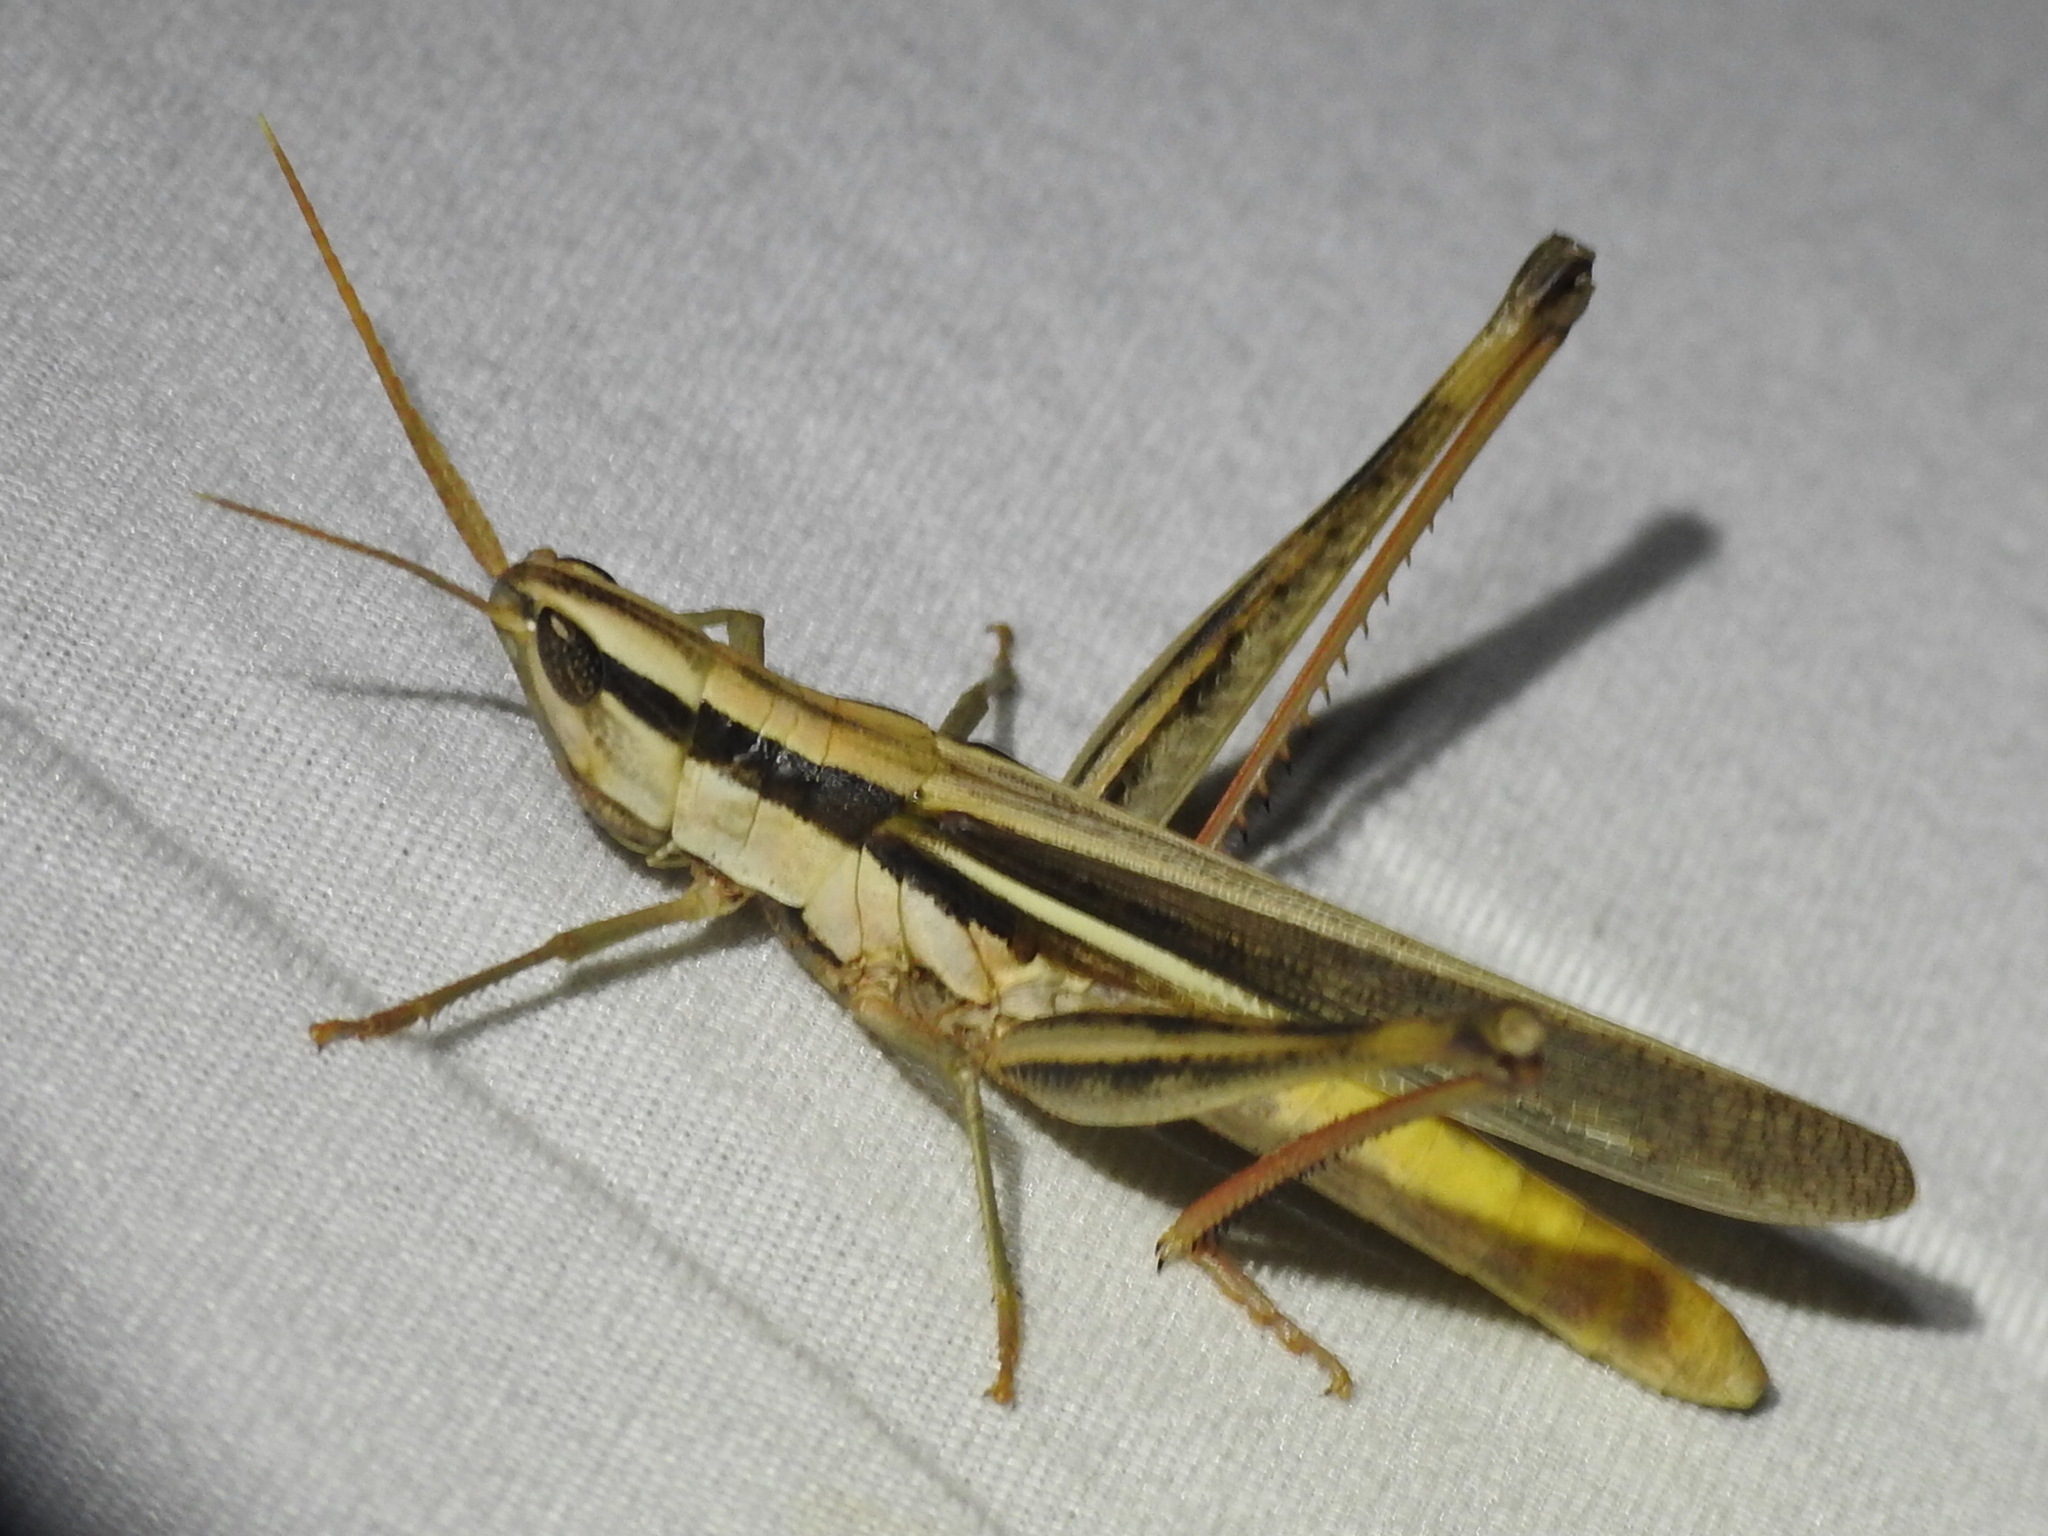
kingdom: Animalia
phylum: Arthropoda
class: Insecta
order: Orthoptera
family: Acrididae
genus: Mermiria
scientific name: Mermiria bivittata
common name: Two-striped mermiria grasshopper
